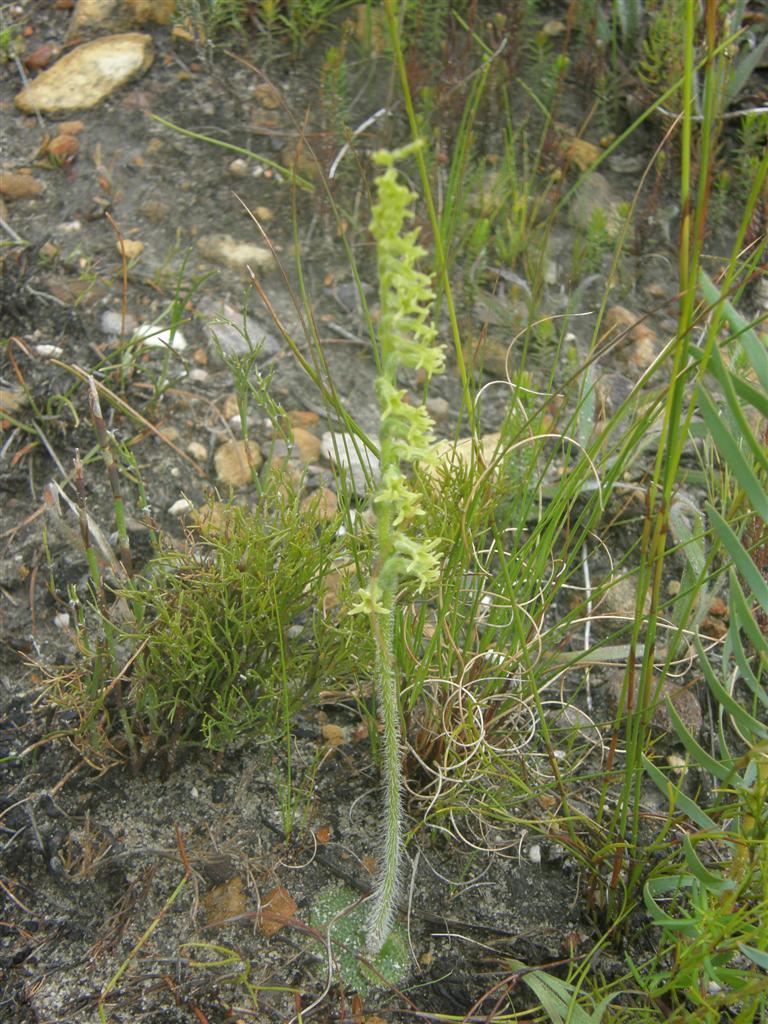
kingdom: Plantae
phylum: Tracheophyta
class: Liliopsida
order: Asparagales
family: Orchidaceae
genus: Holothrix
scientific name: Holothrix cernua
